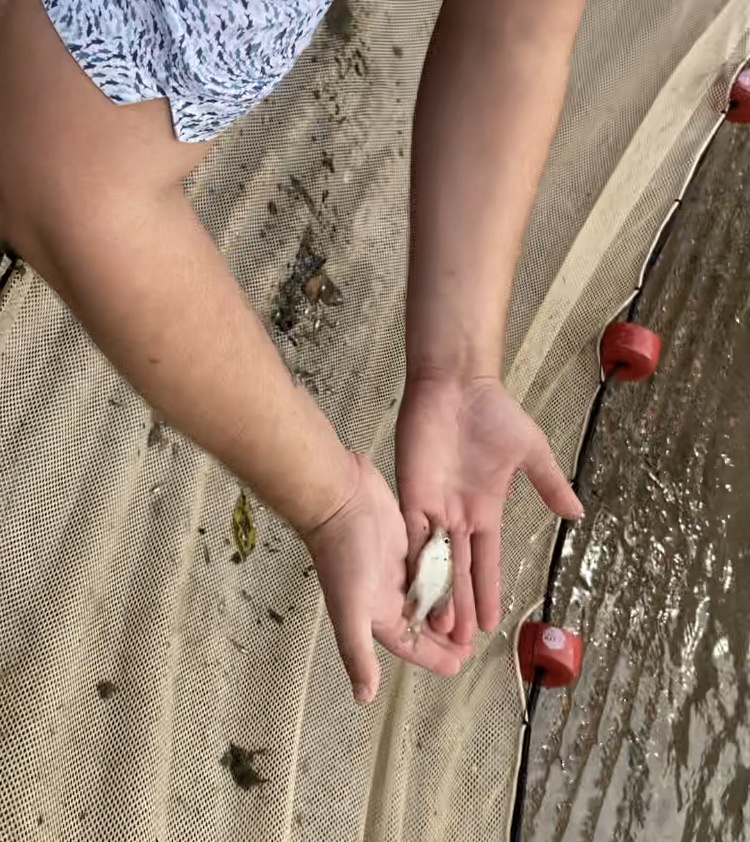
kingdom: Animalia
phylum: Chordata
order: Perciformes
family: Centrarchidae
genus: Lepomis
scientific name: Lepomis macrochirus
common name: Bluegill
